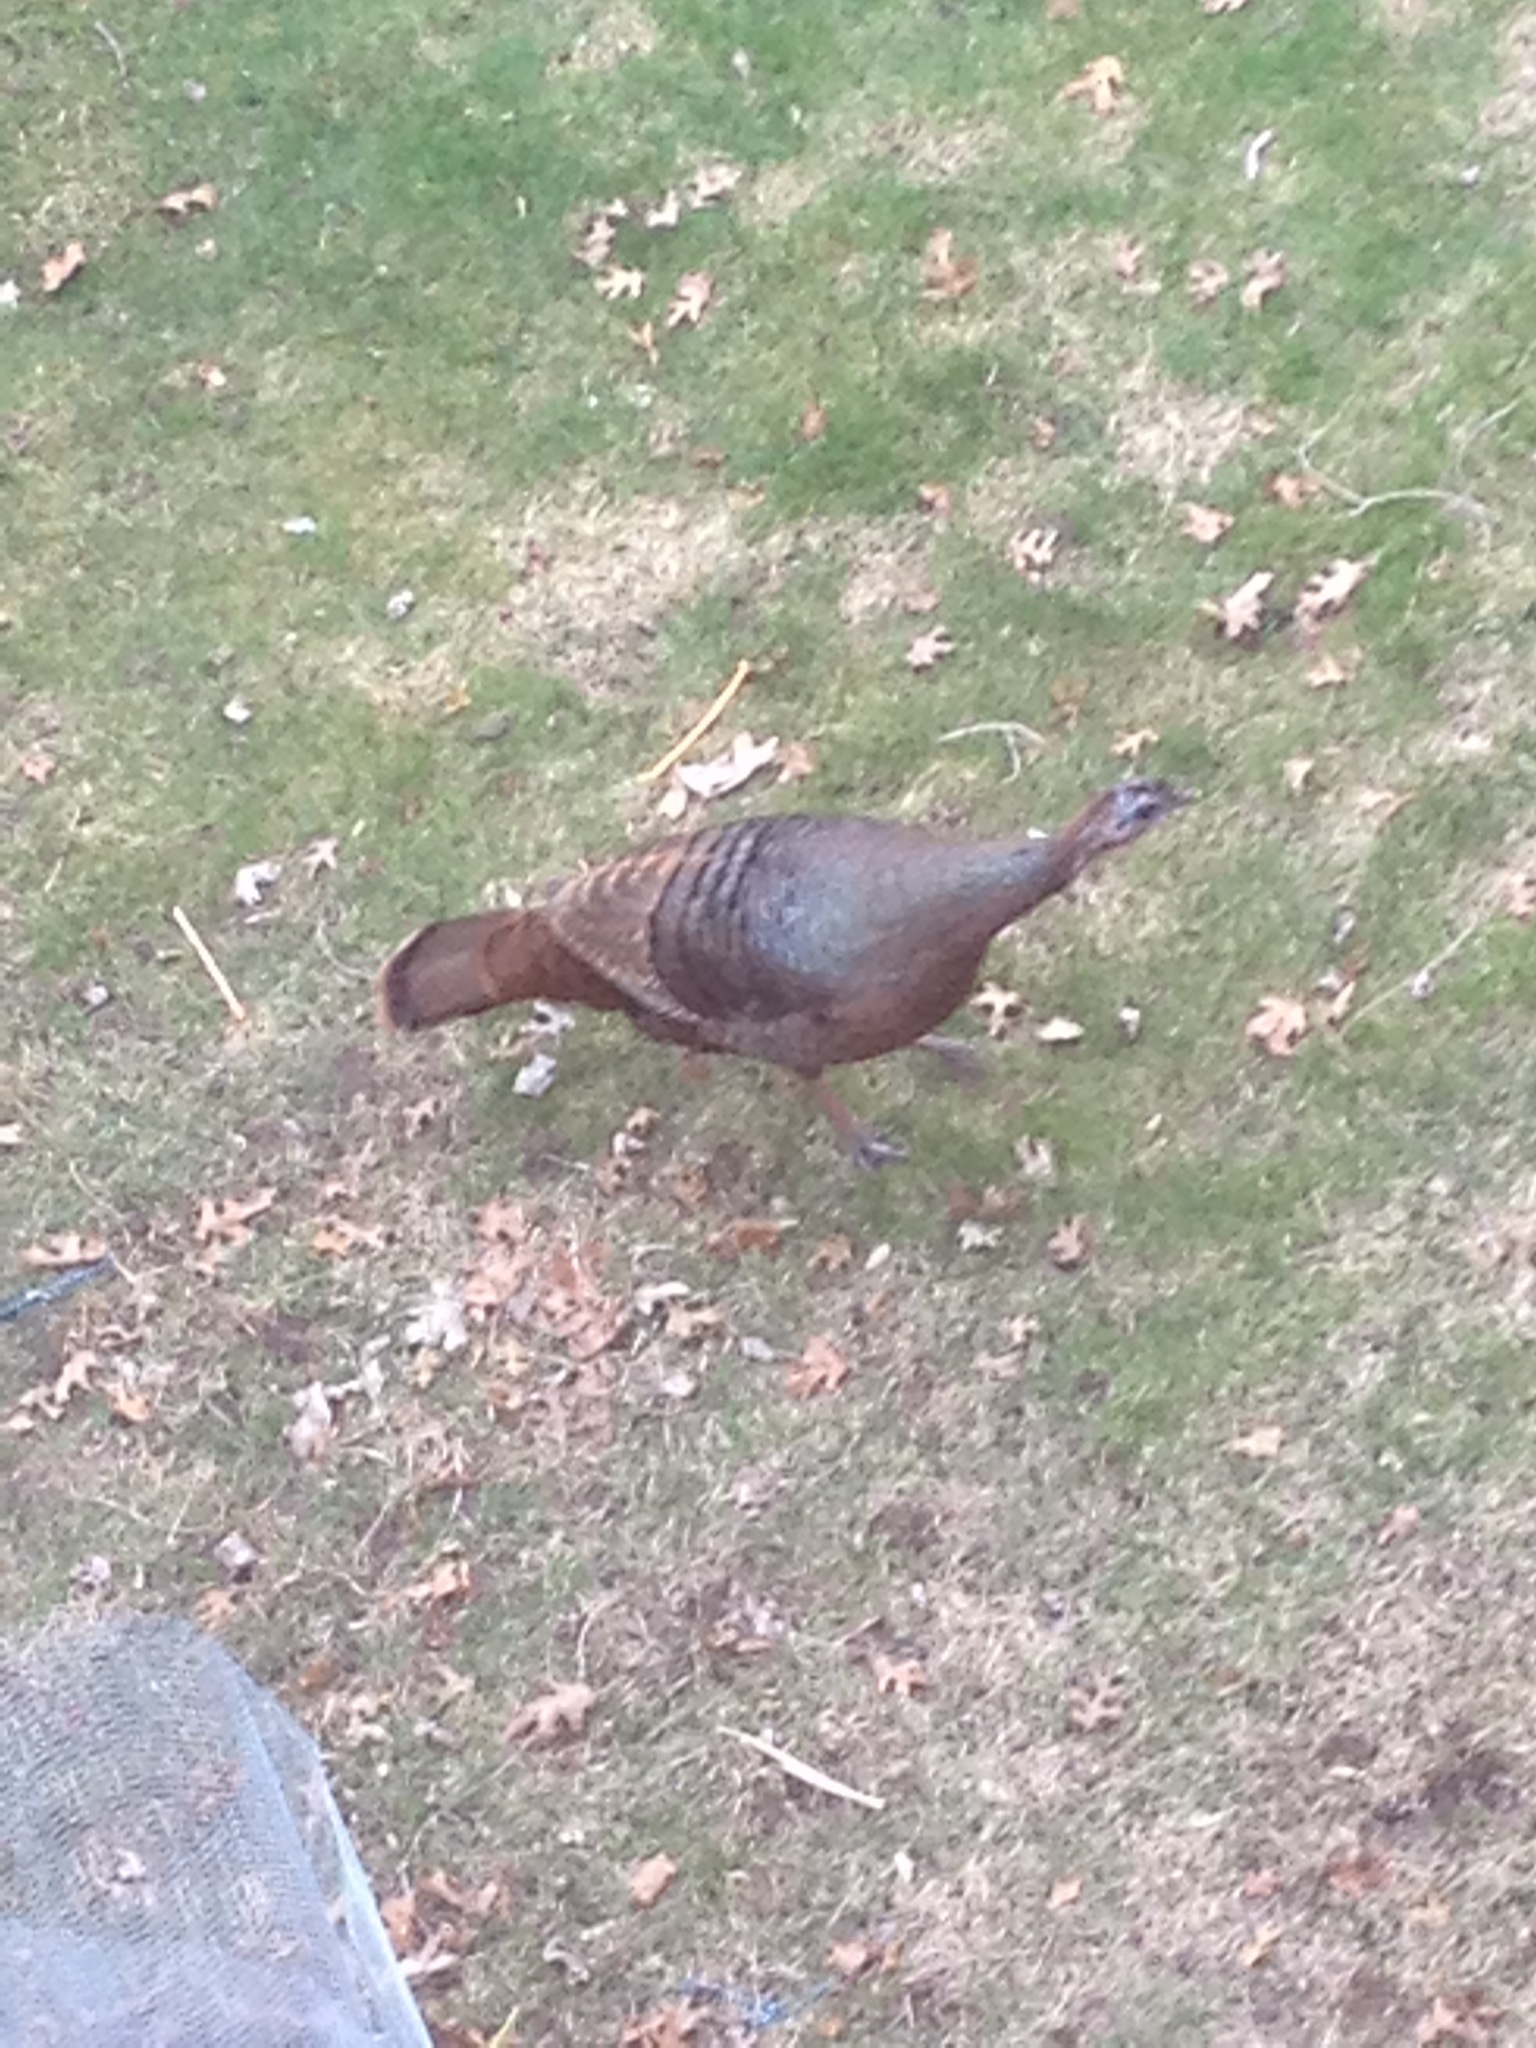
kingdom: Animalia
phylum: Chordata
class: Aves
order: Galliformes
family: Phasianidae
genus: Meleagris
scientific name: Meleagris gallopavo
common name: Wild turkey
